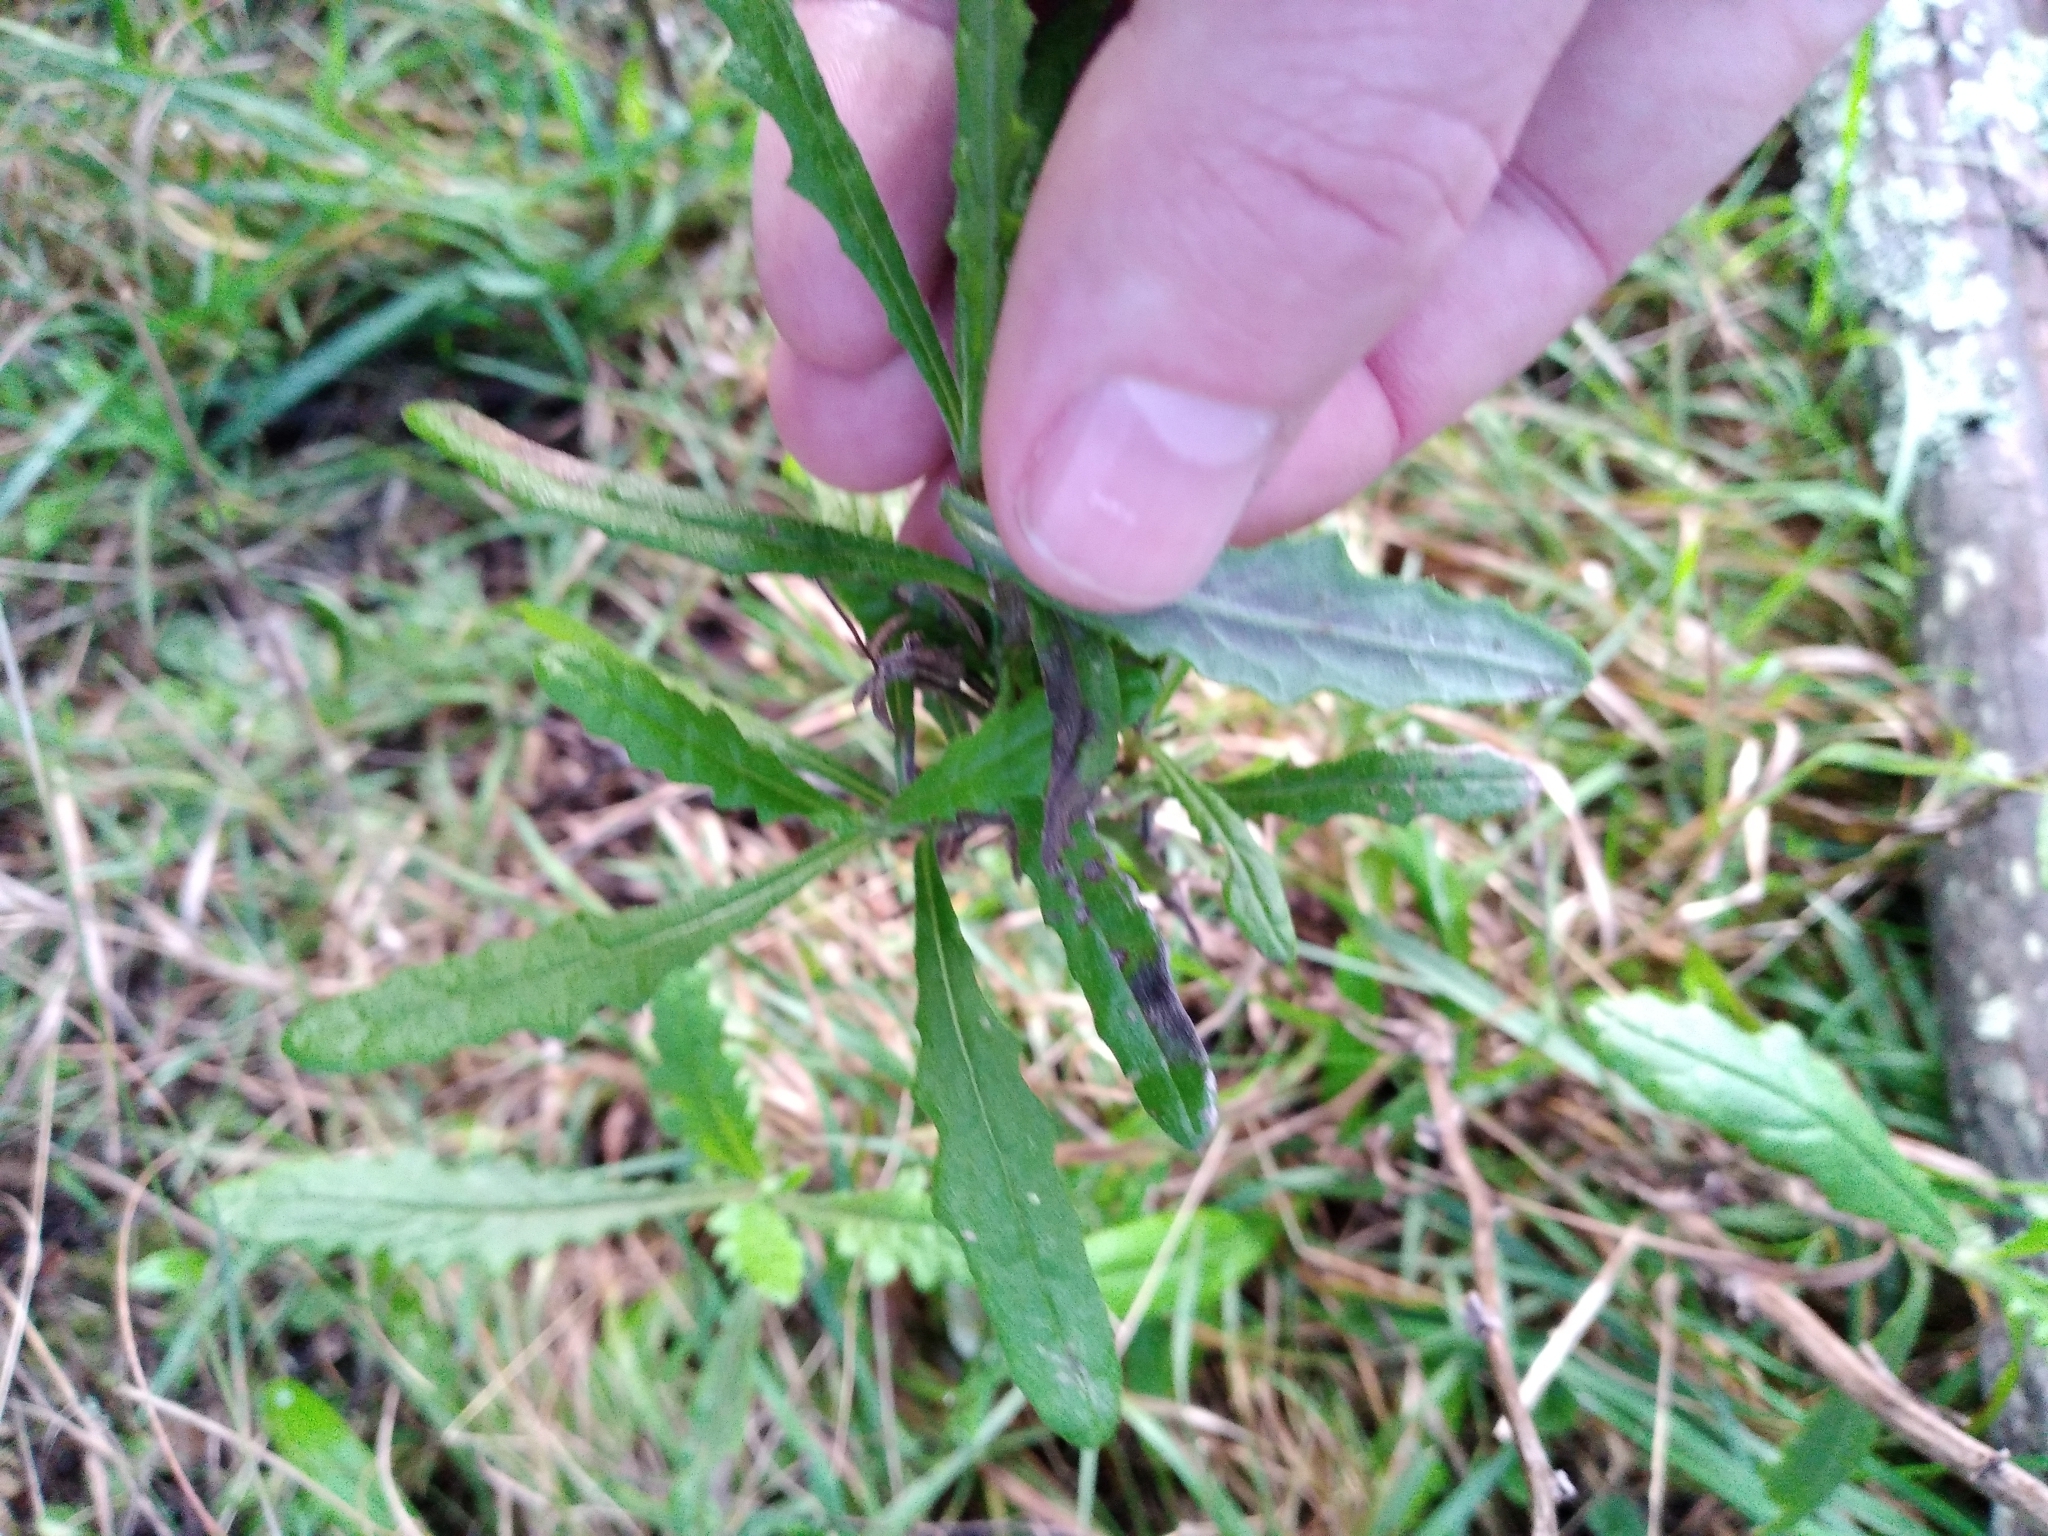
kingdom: Plantae
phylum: Tracheophyta
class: Magnoliopsida
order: Asterales
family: Asteraceae
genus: Senecio
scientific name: Senecio minimus
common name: Toothed fireweed
